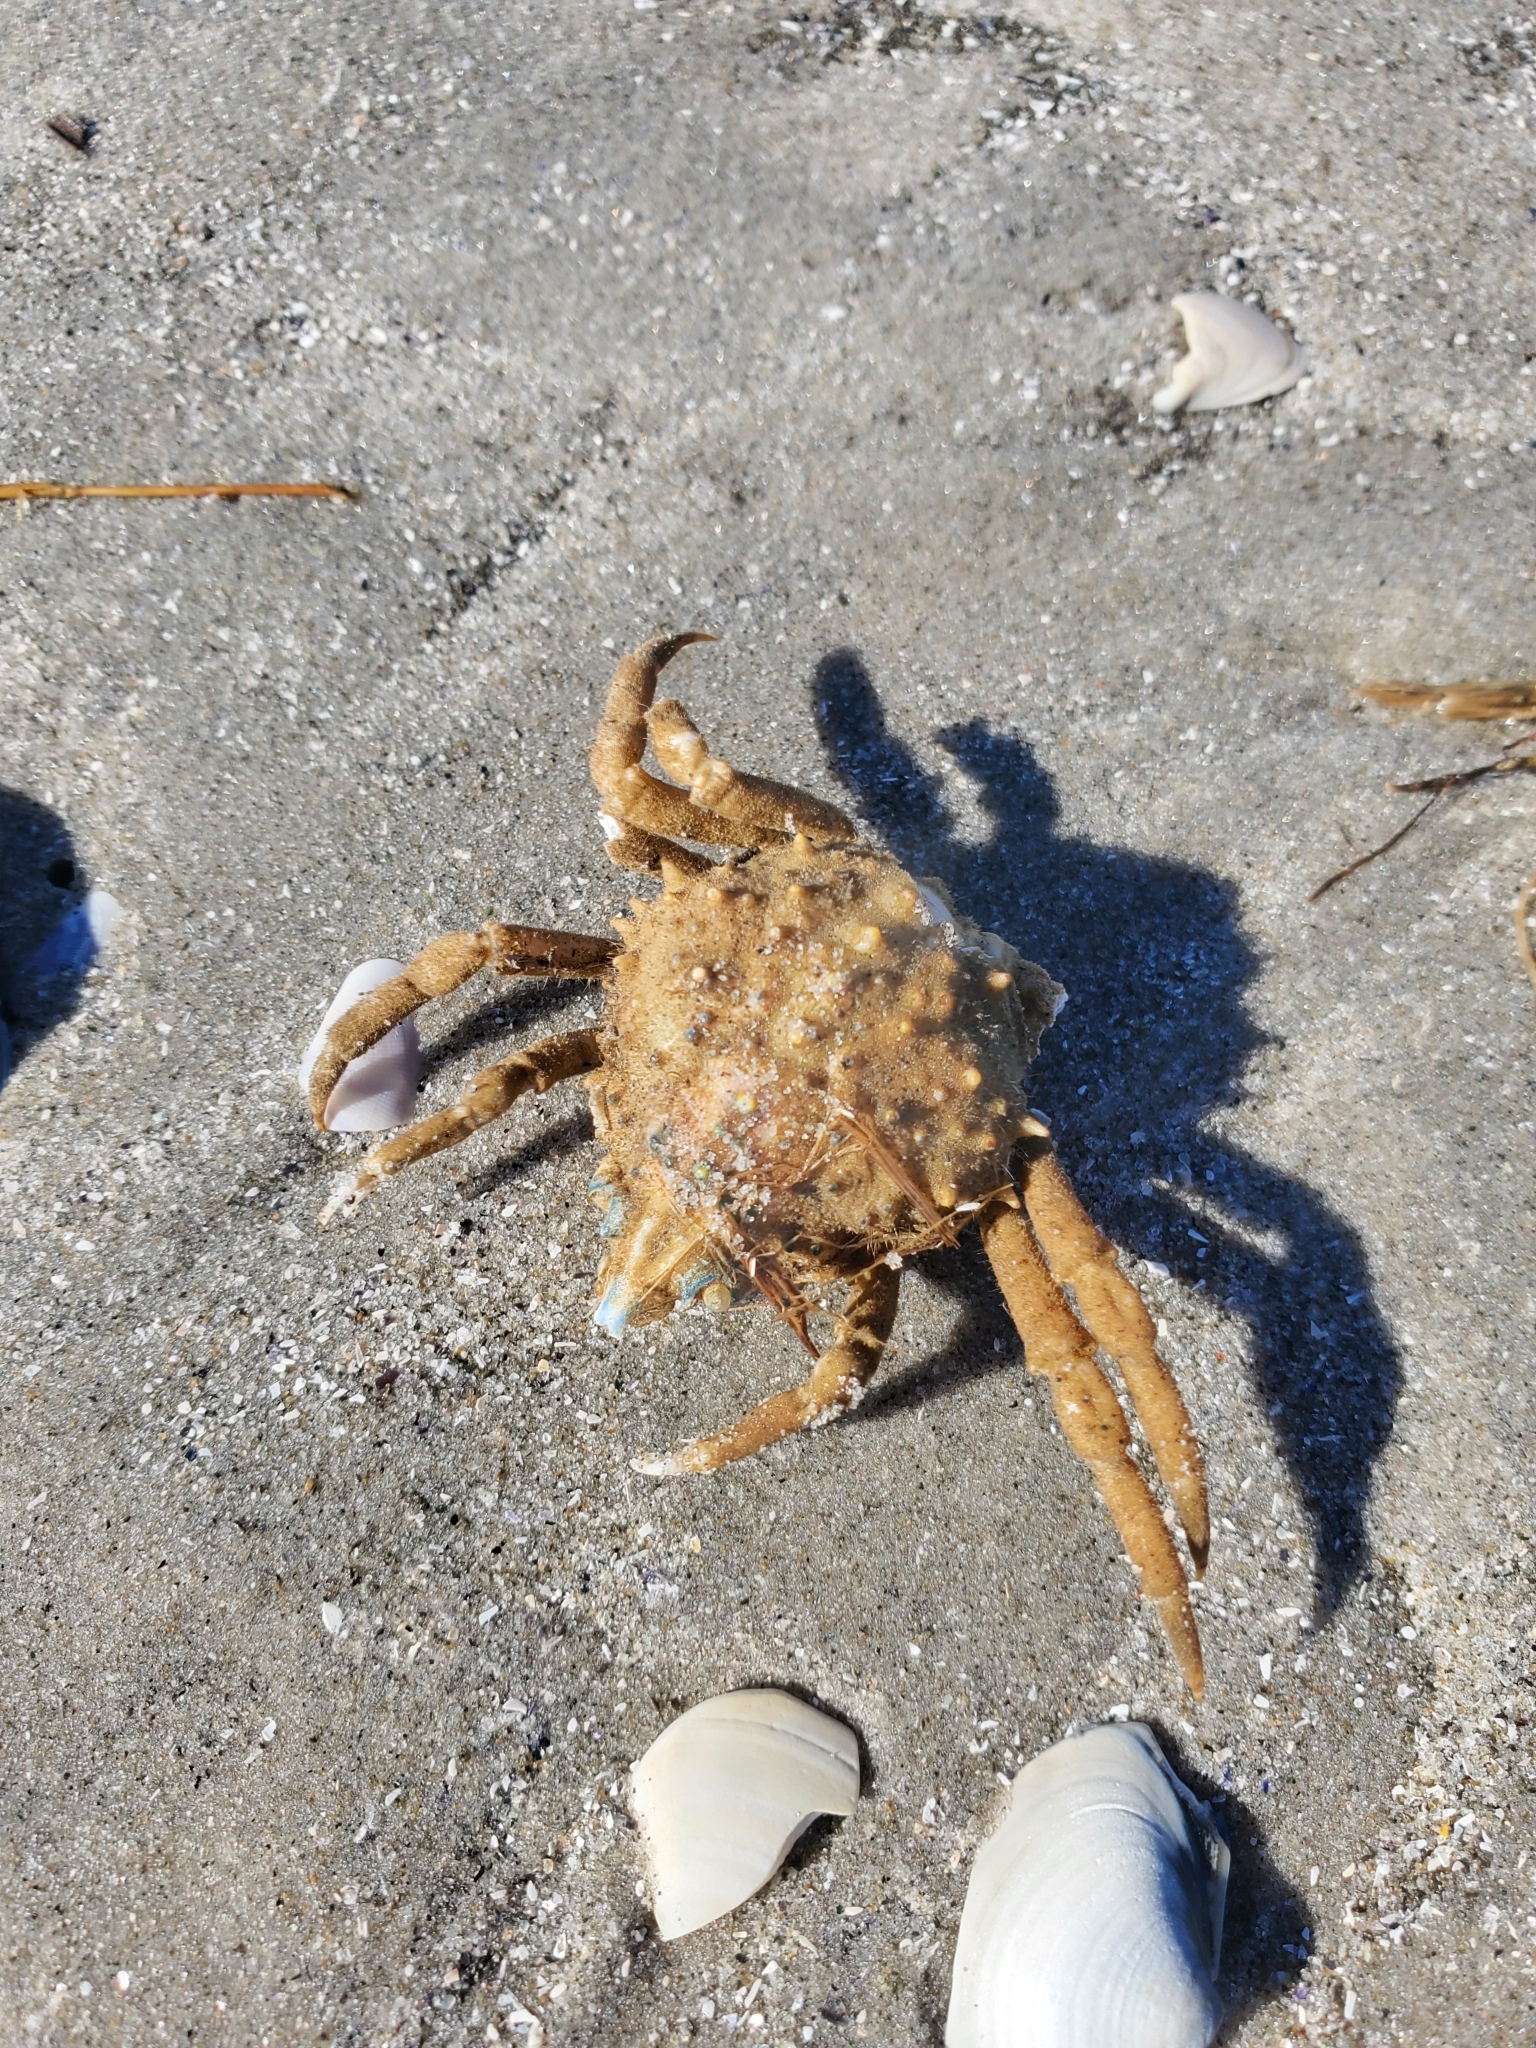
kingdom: Animalia
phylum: Arthropoda
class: Malacostraca
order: Decapoda
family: Epialtidae
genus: Libinia
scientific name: Libinia emarginata
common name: Common spider crab
